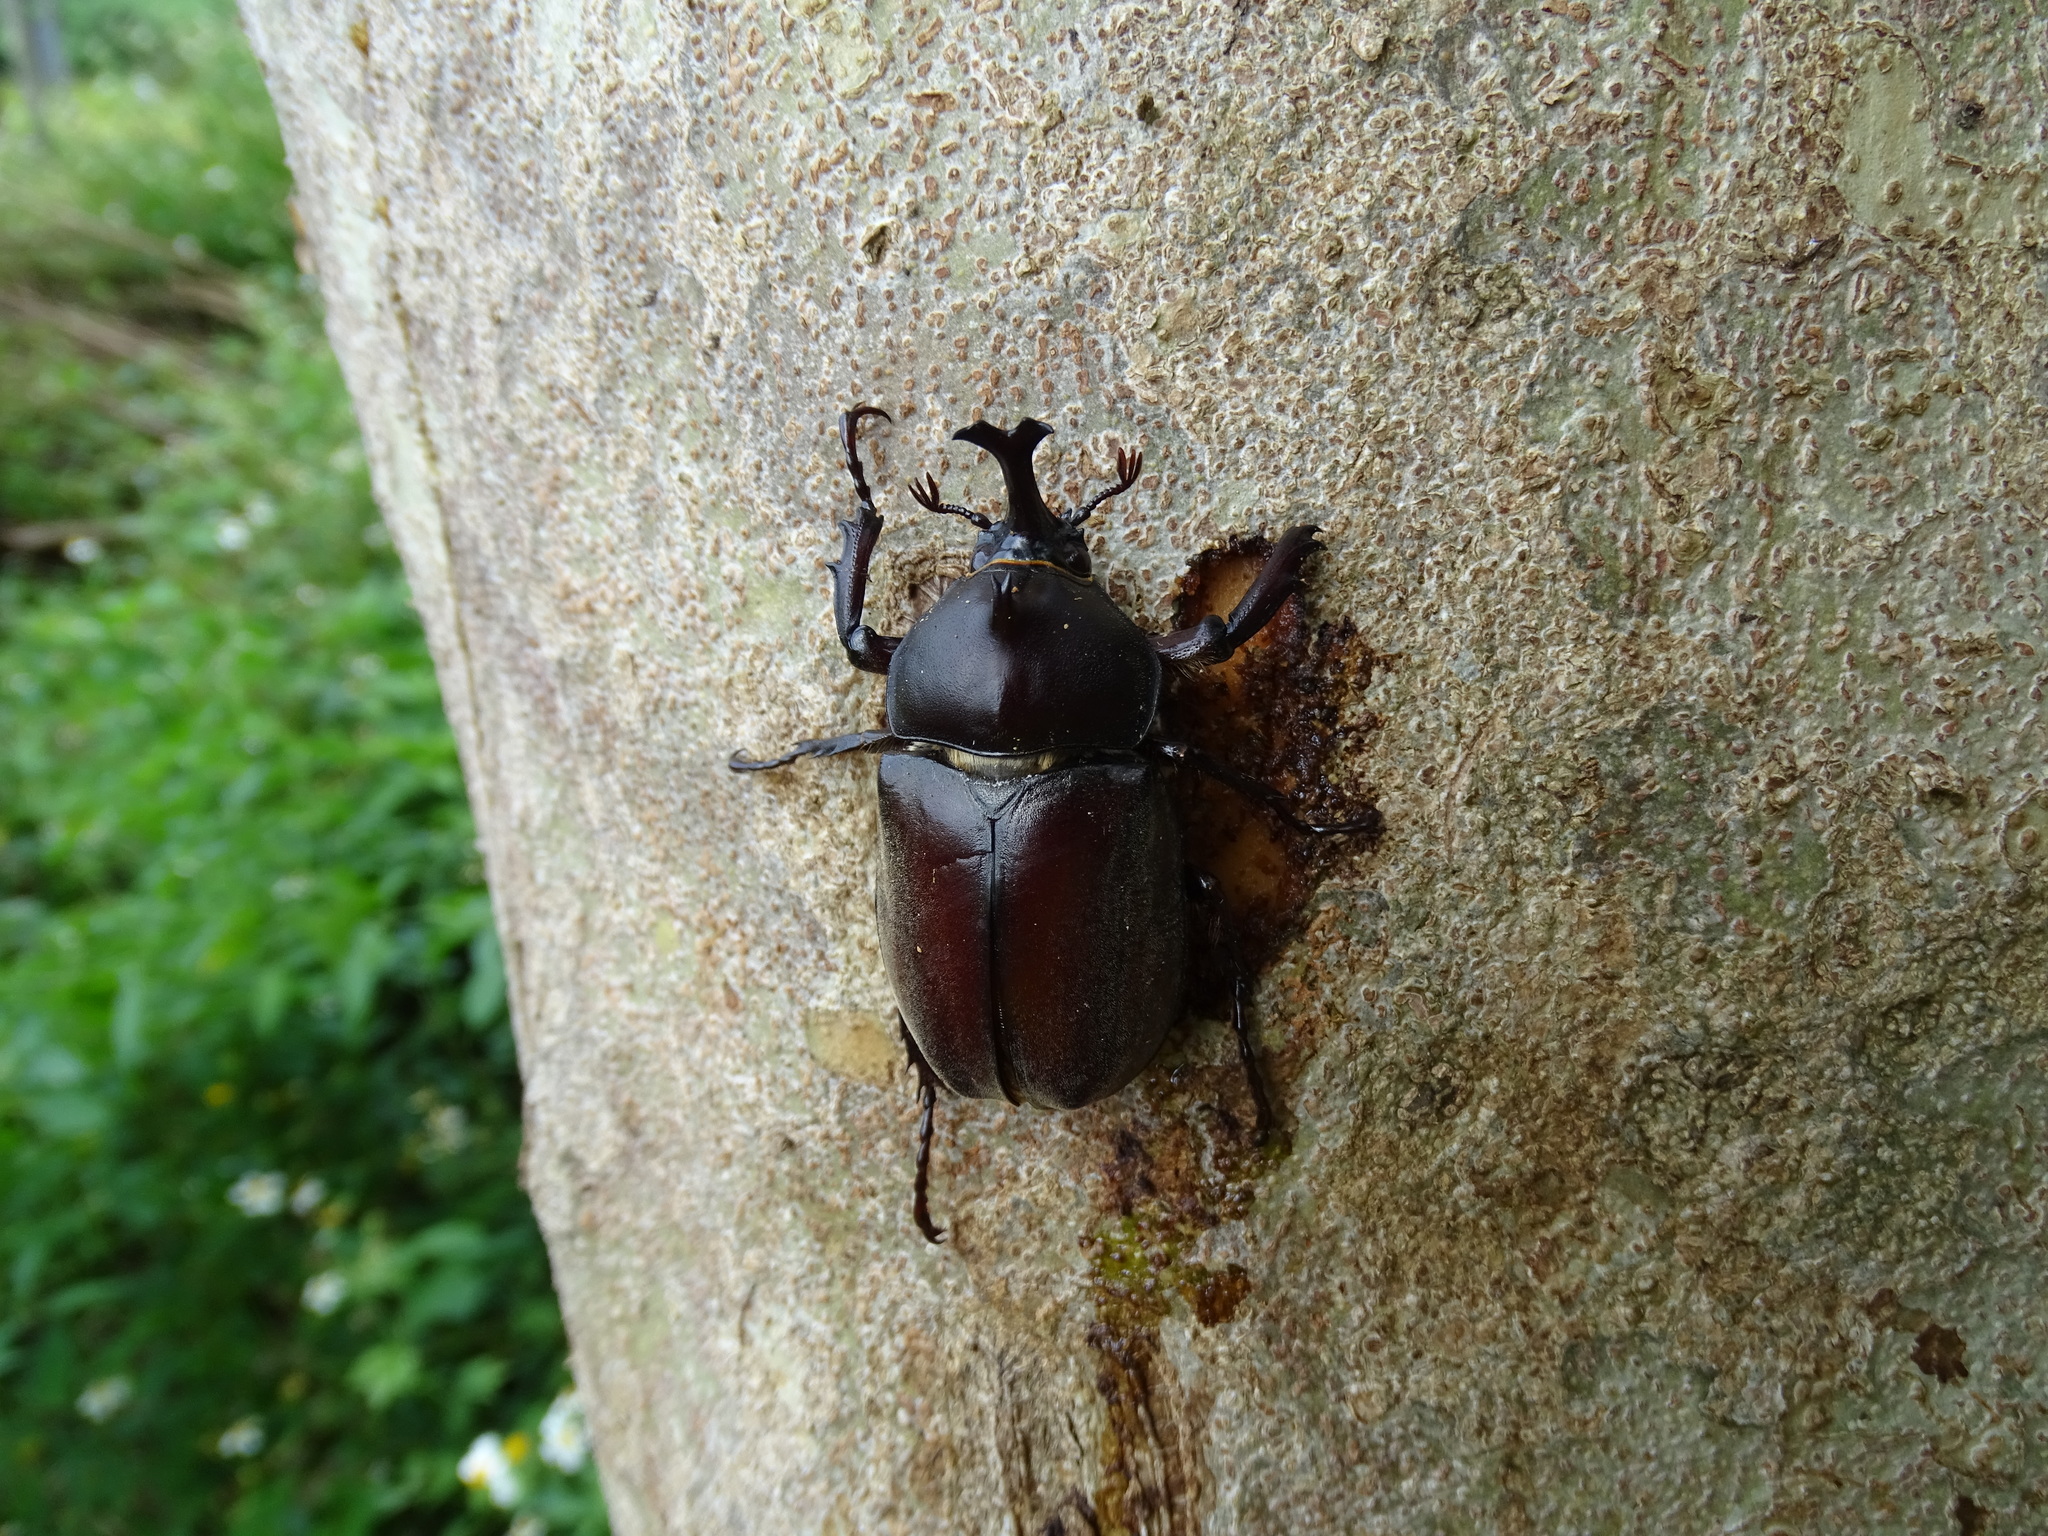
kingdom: Animalia
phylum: Arthropoda
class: Insecta
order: Coleoptera
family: Scarabaeidae
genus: Trypoxylus
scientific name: Trypoxylus dichotomus
